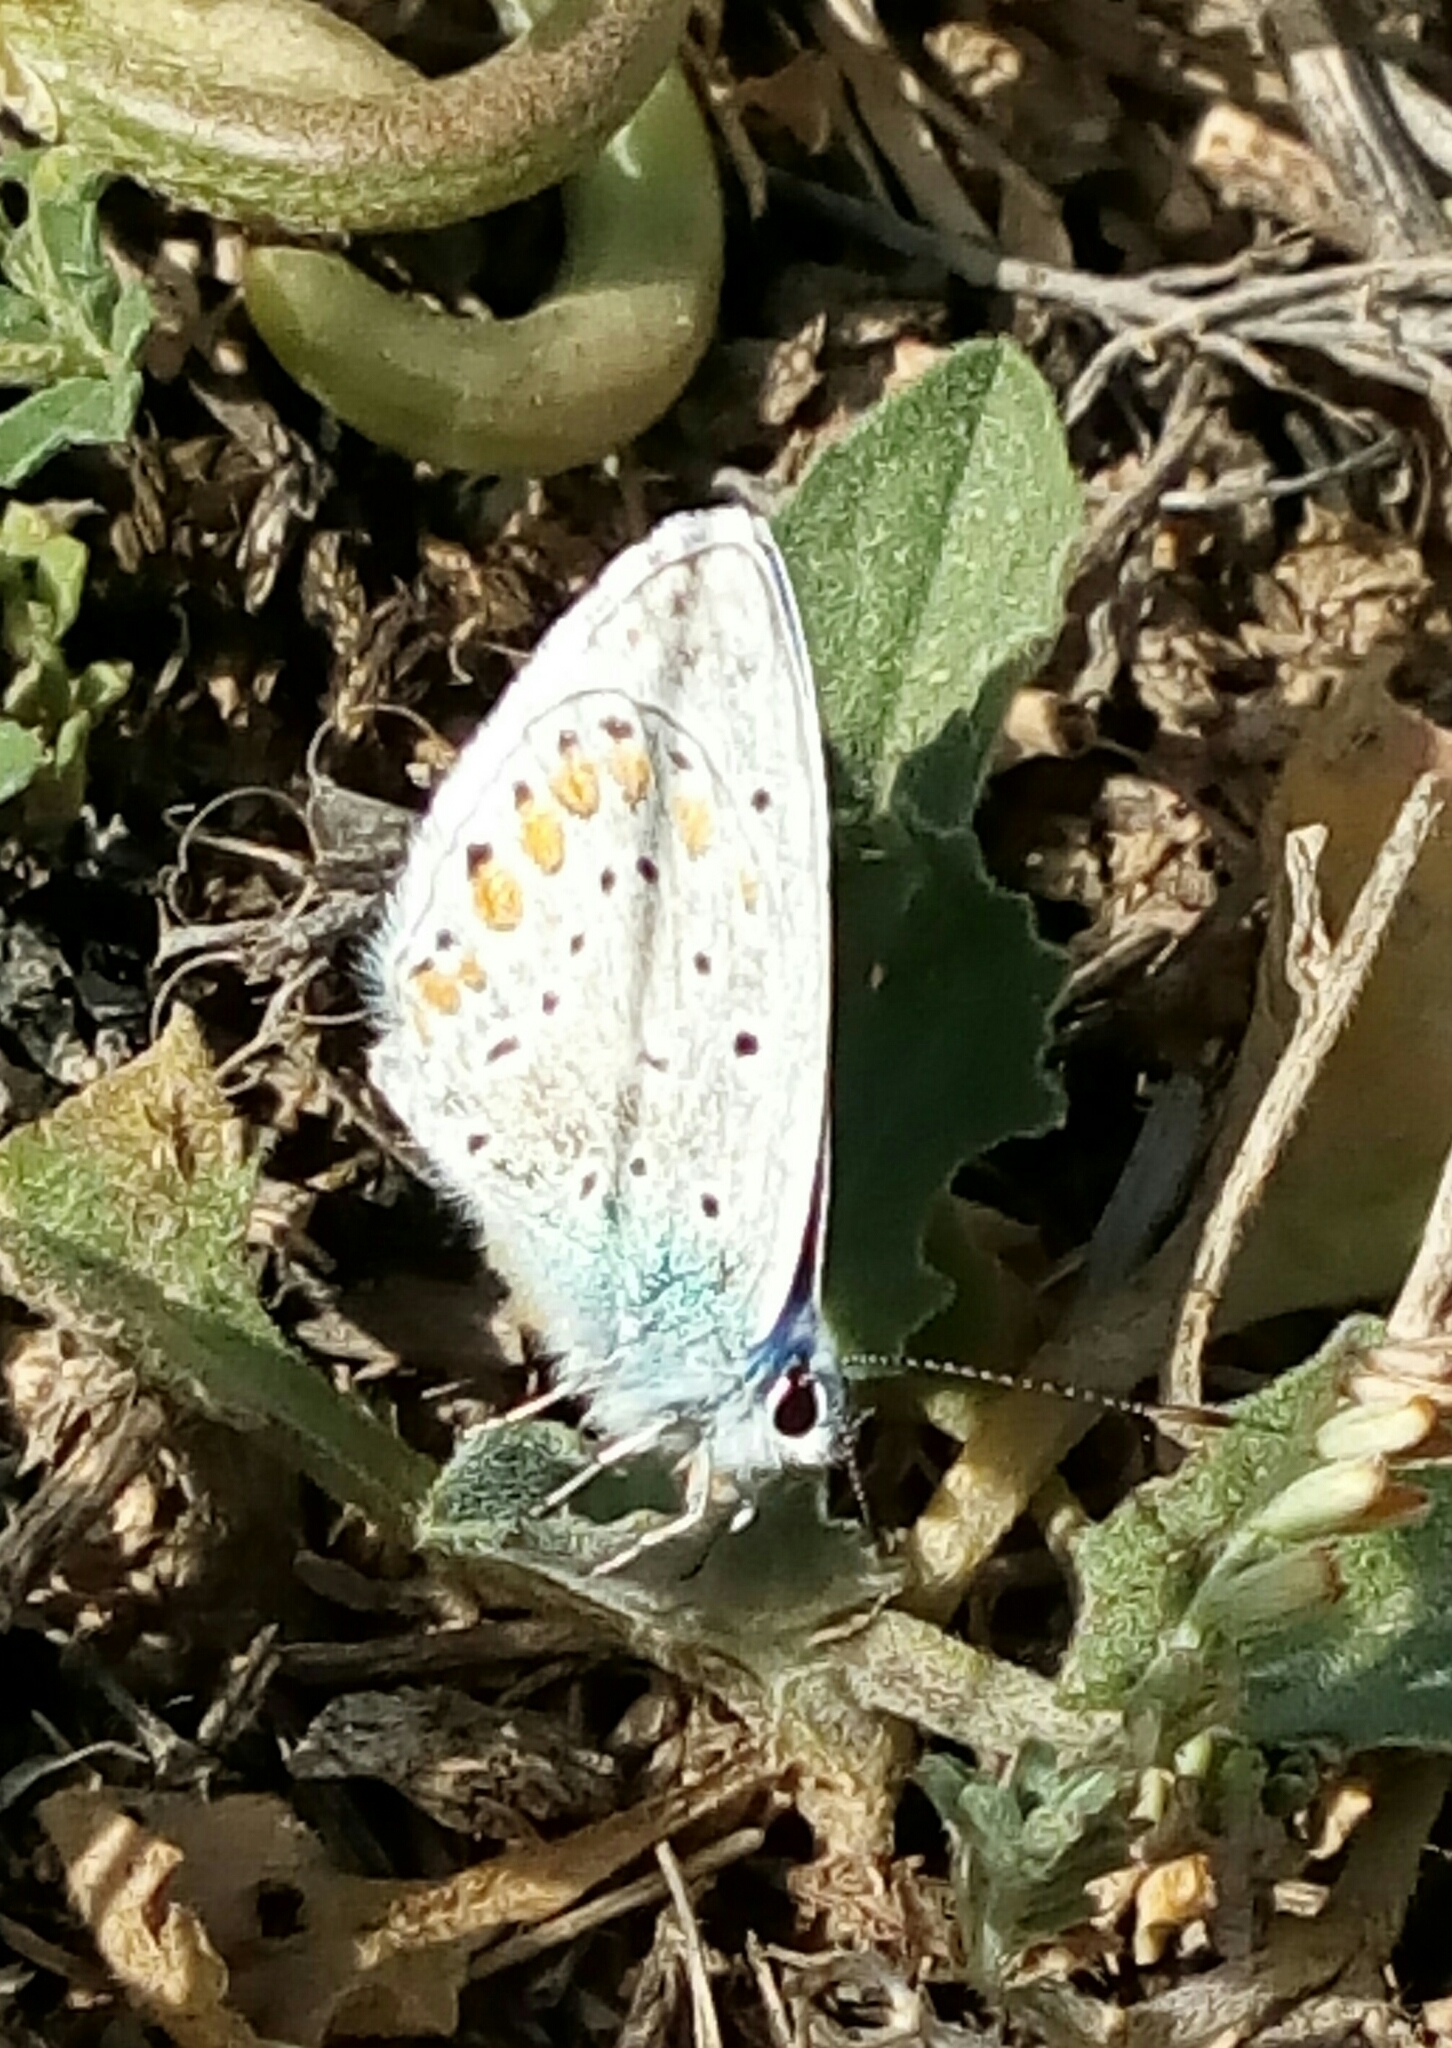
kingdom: Animalia
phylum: Arthropoda
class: Insecta
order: Lepidoptera
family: Lycaenidae
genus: Polyommatus
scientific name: Polyommatus icarus
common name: Common blue
